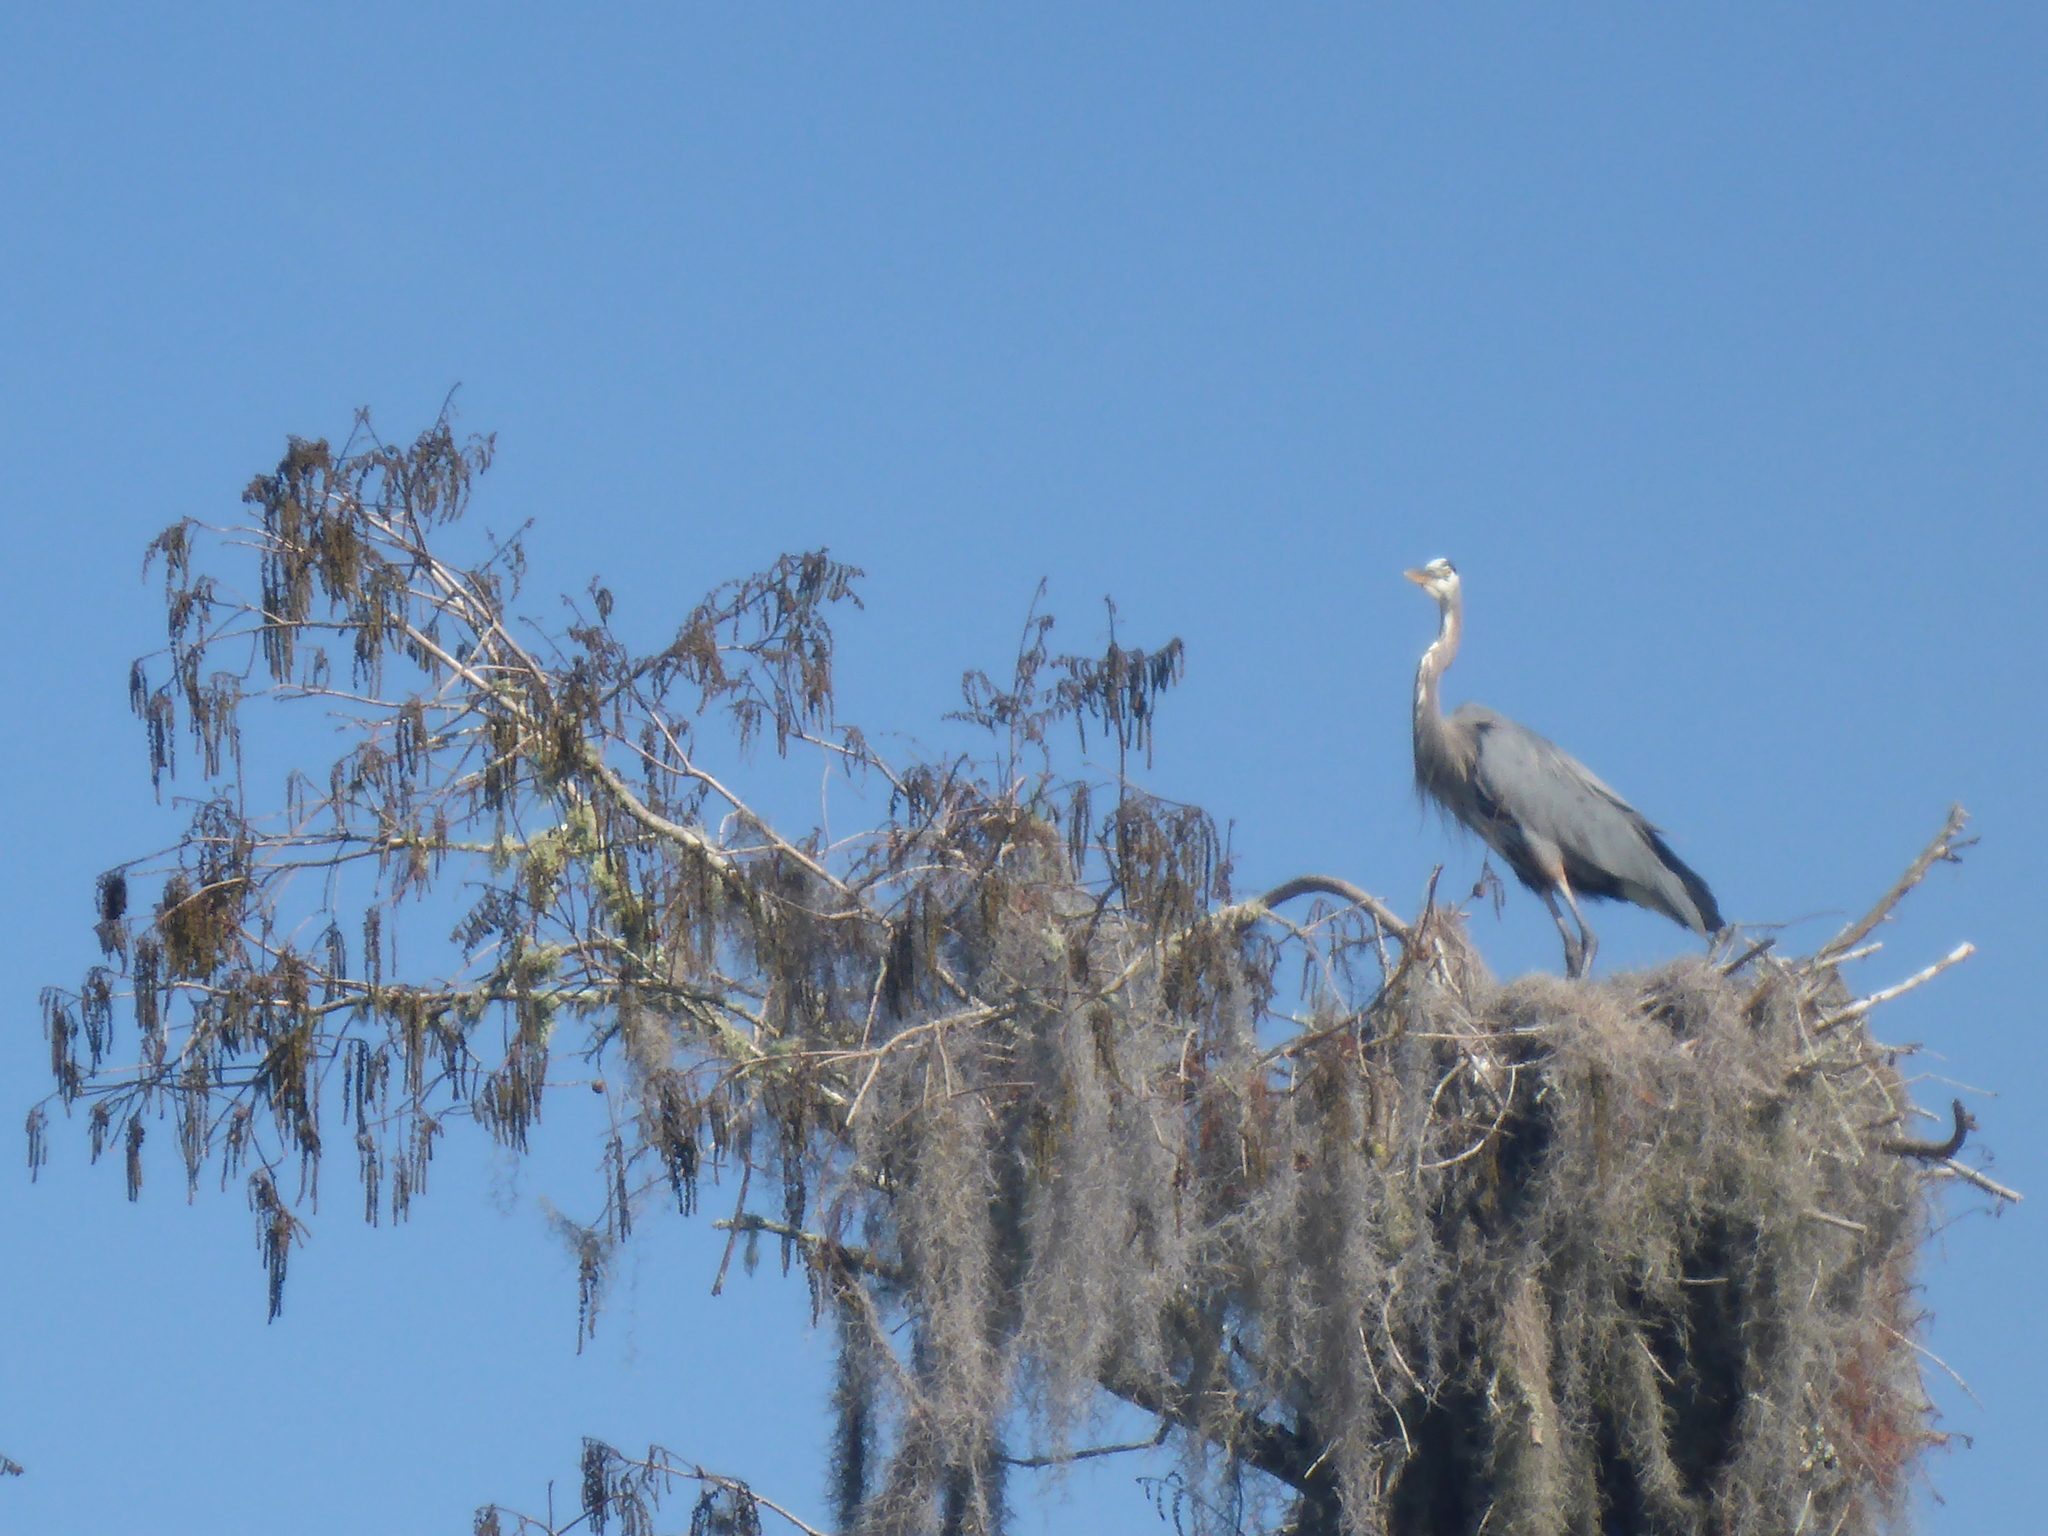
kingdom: Animalia
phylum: Chordata
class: Aves
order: Pelecaniformes
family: Ardeidae
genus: Ardea
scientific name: Ardea herodias
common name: Great blue heron
